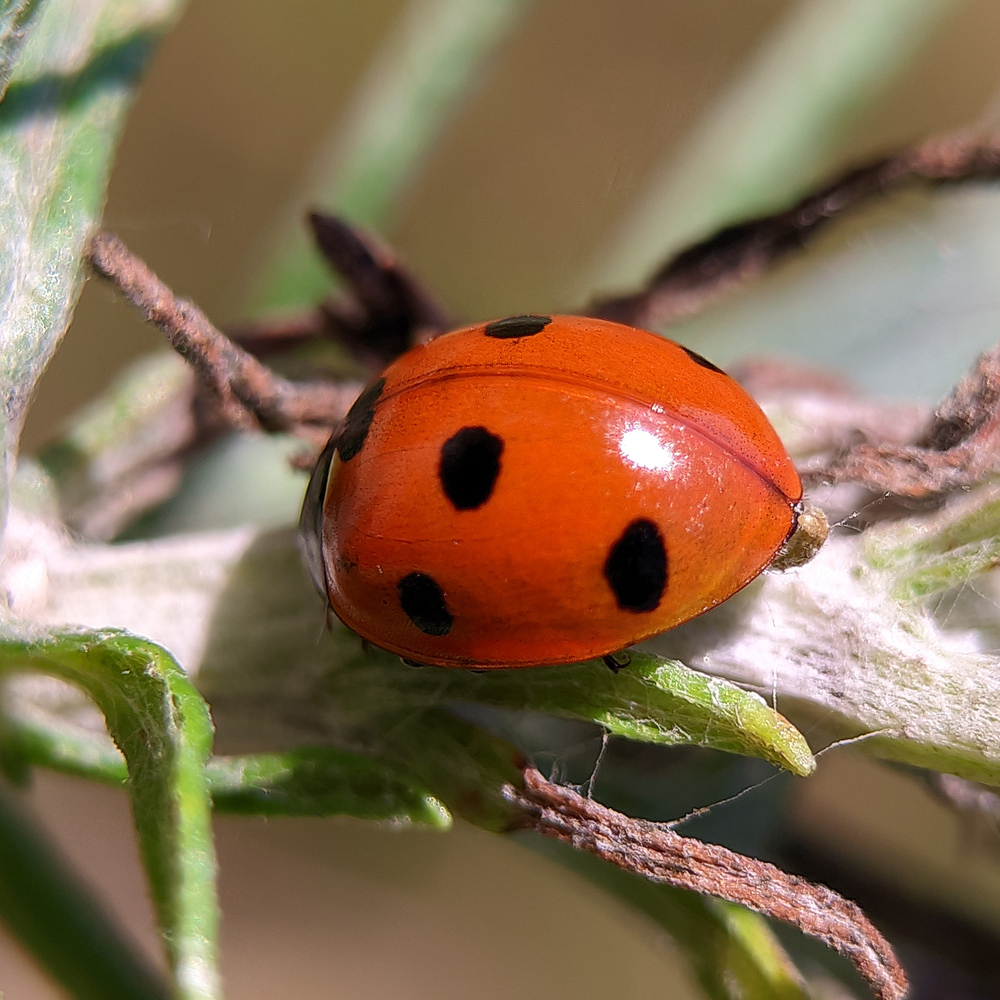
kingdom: Animalia
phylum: Arthropoda
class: Insecta
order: Coleoptera
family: Coccinellidae
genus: Coccinella
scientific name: Coccinella septempunctata
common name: Sevenspotted lady beetle
